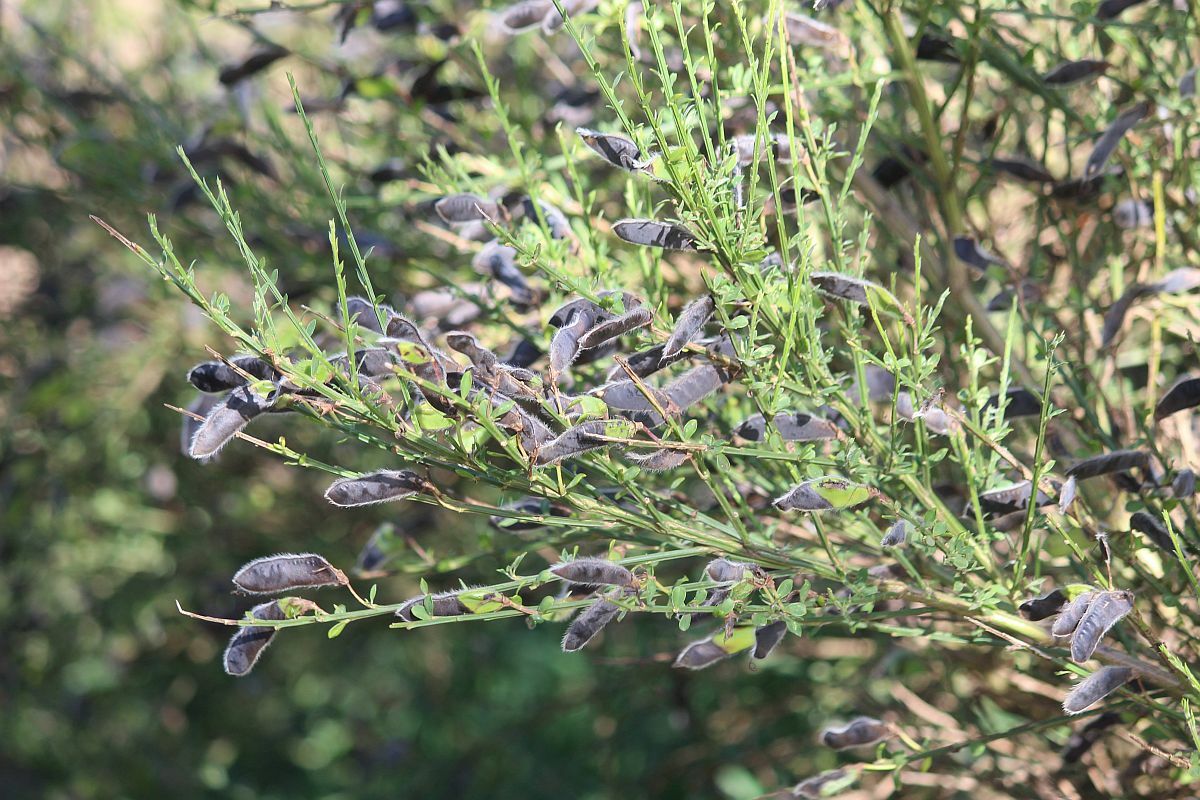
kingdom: Plantae
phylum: Tracheophyta
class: Magnoliopsida
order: Fabales
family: Fabaceae
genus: Cytisus
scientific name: Cytisus scoparius
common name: Scotch broom
